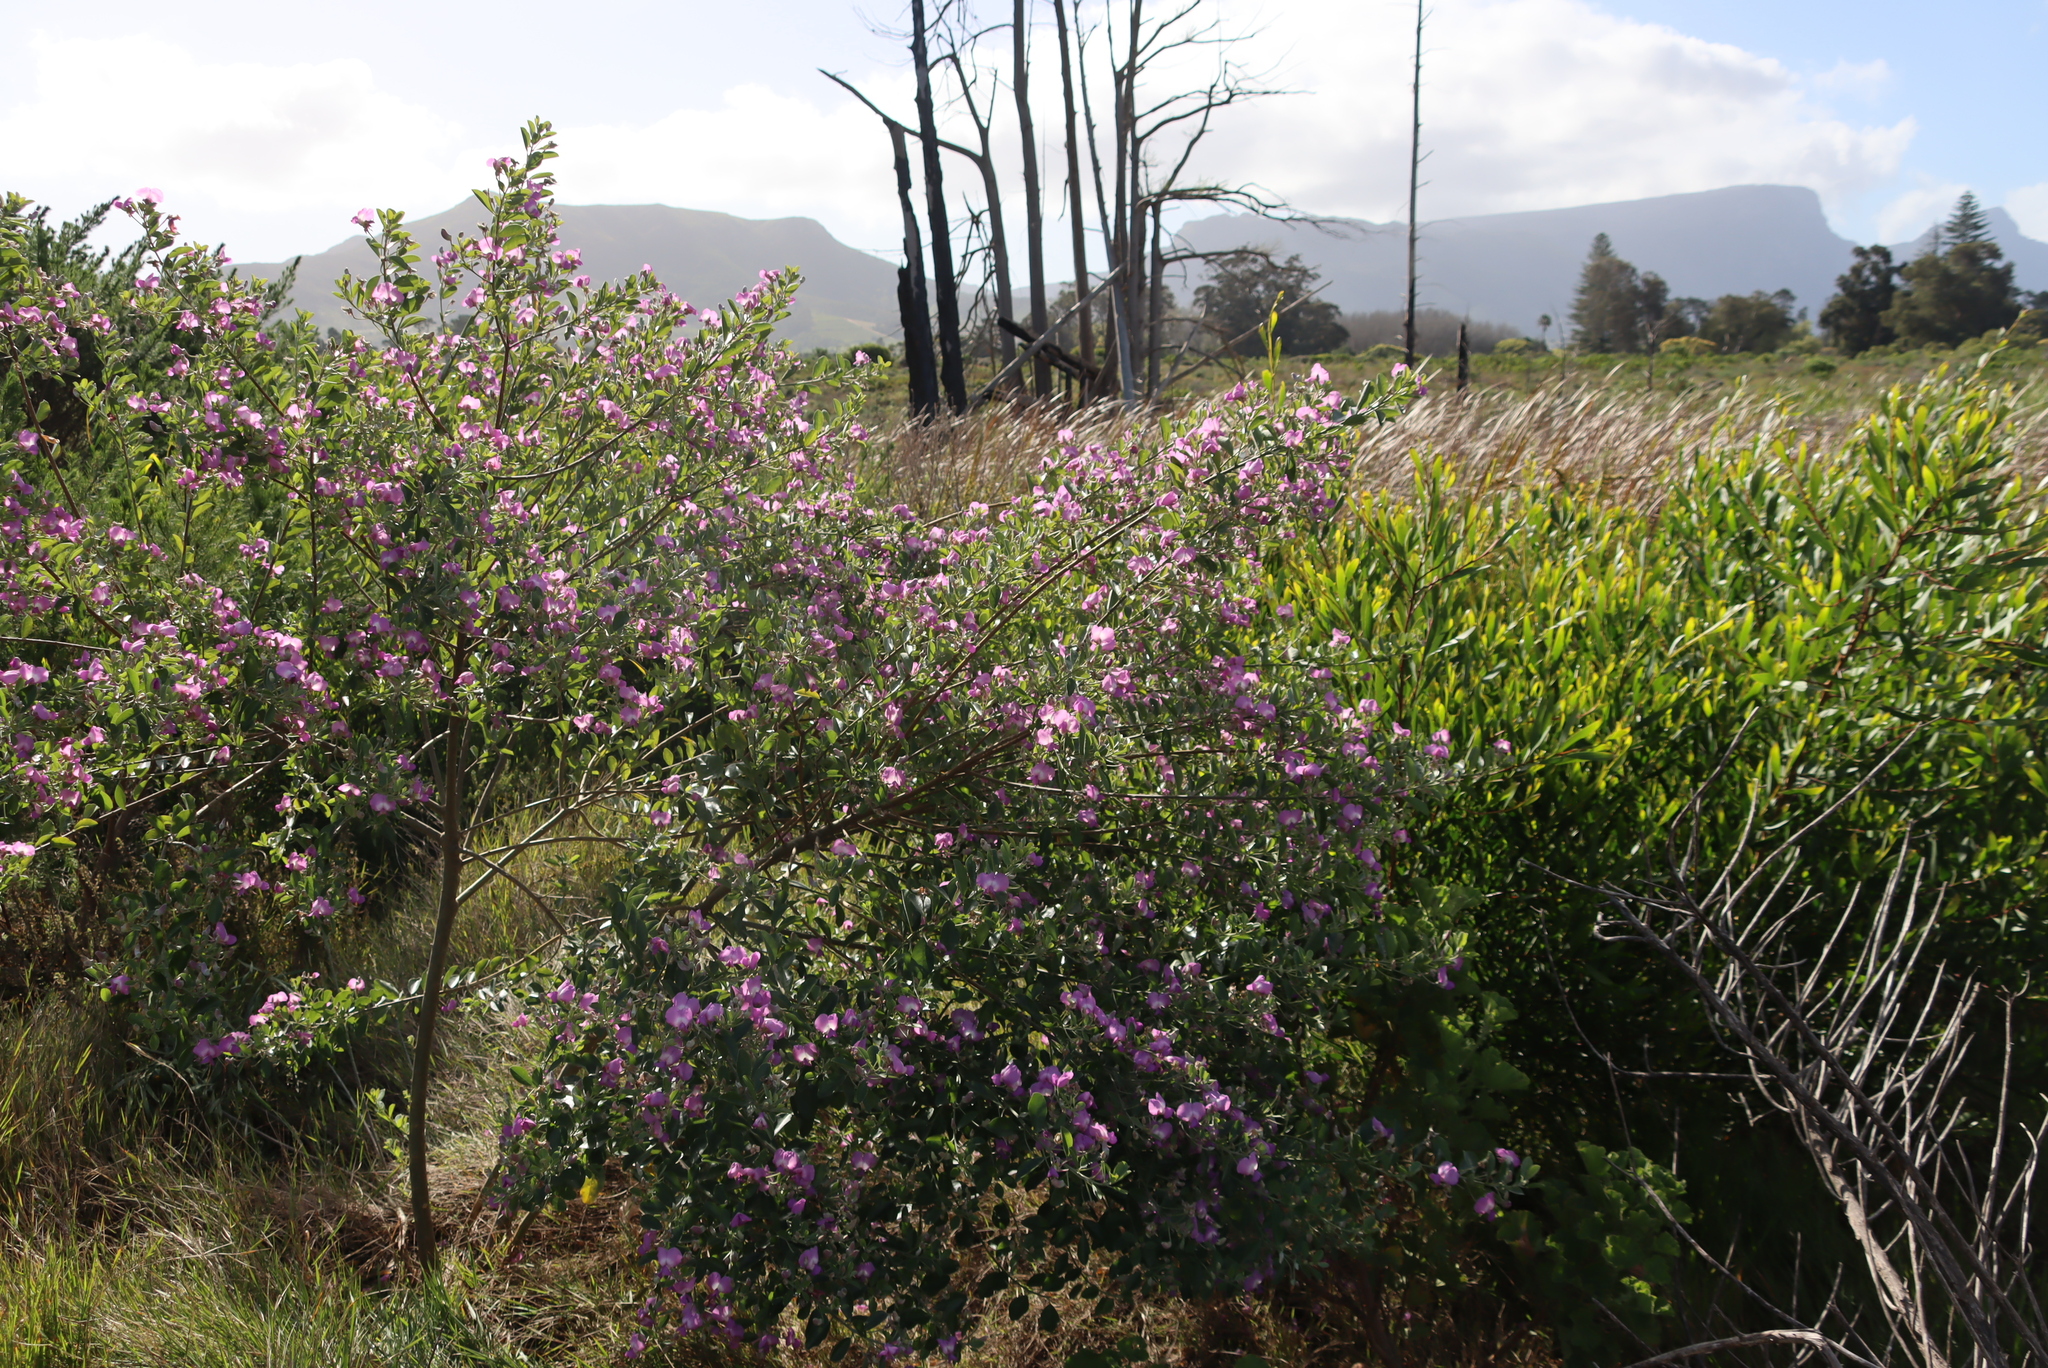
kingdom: Plantae
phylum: Tracheophyta
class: Magnoliopsida
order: Fabales
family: Fabaceae
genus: Podalyria
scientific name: Podalyria calyptrata
